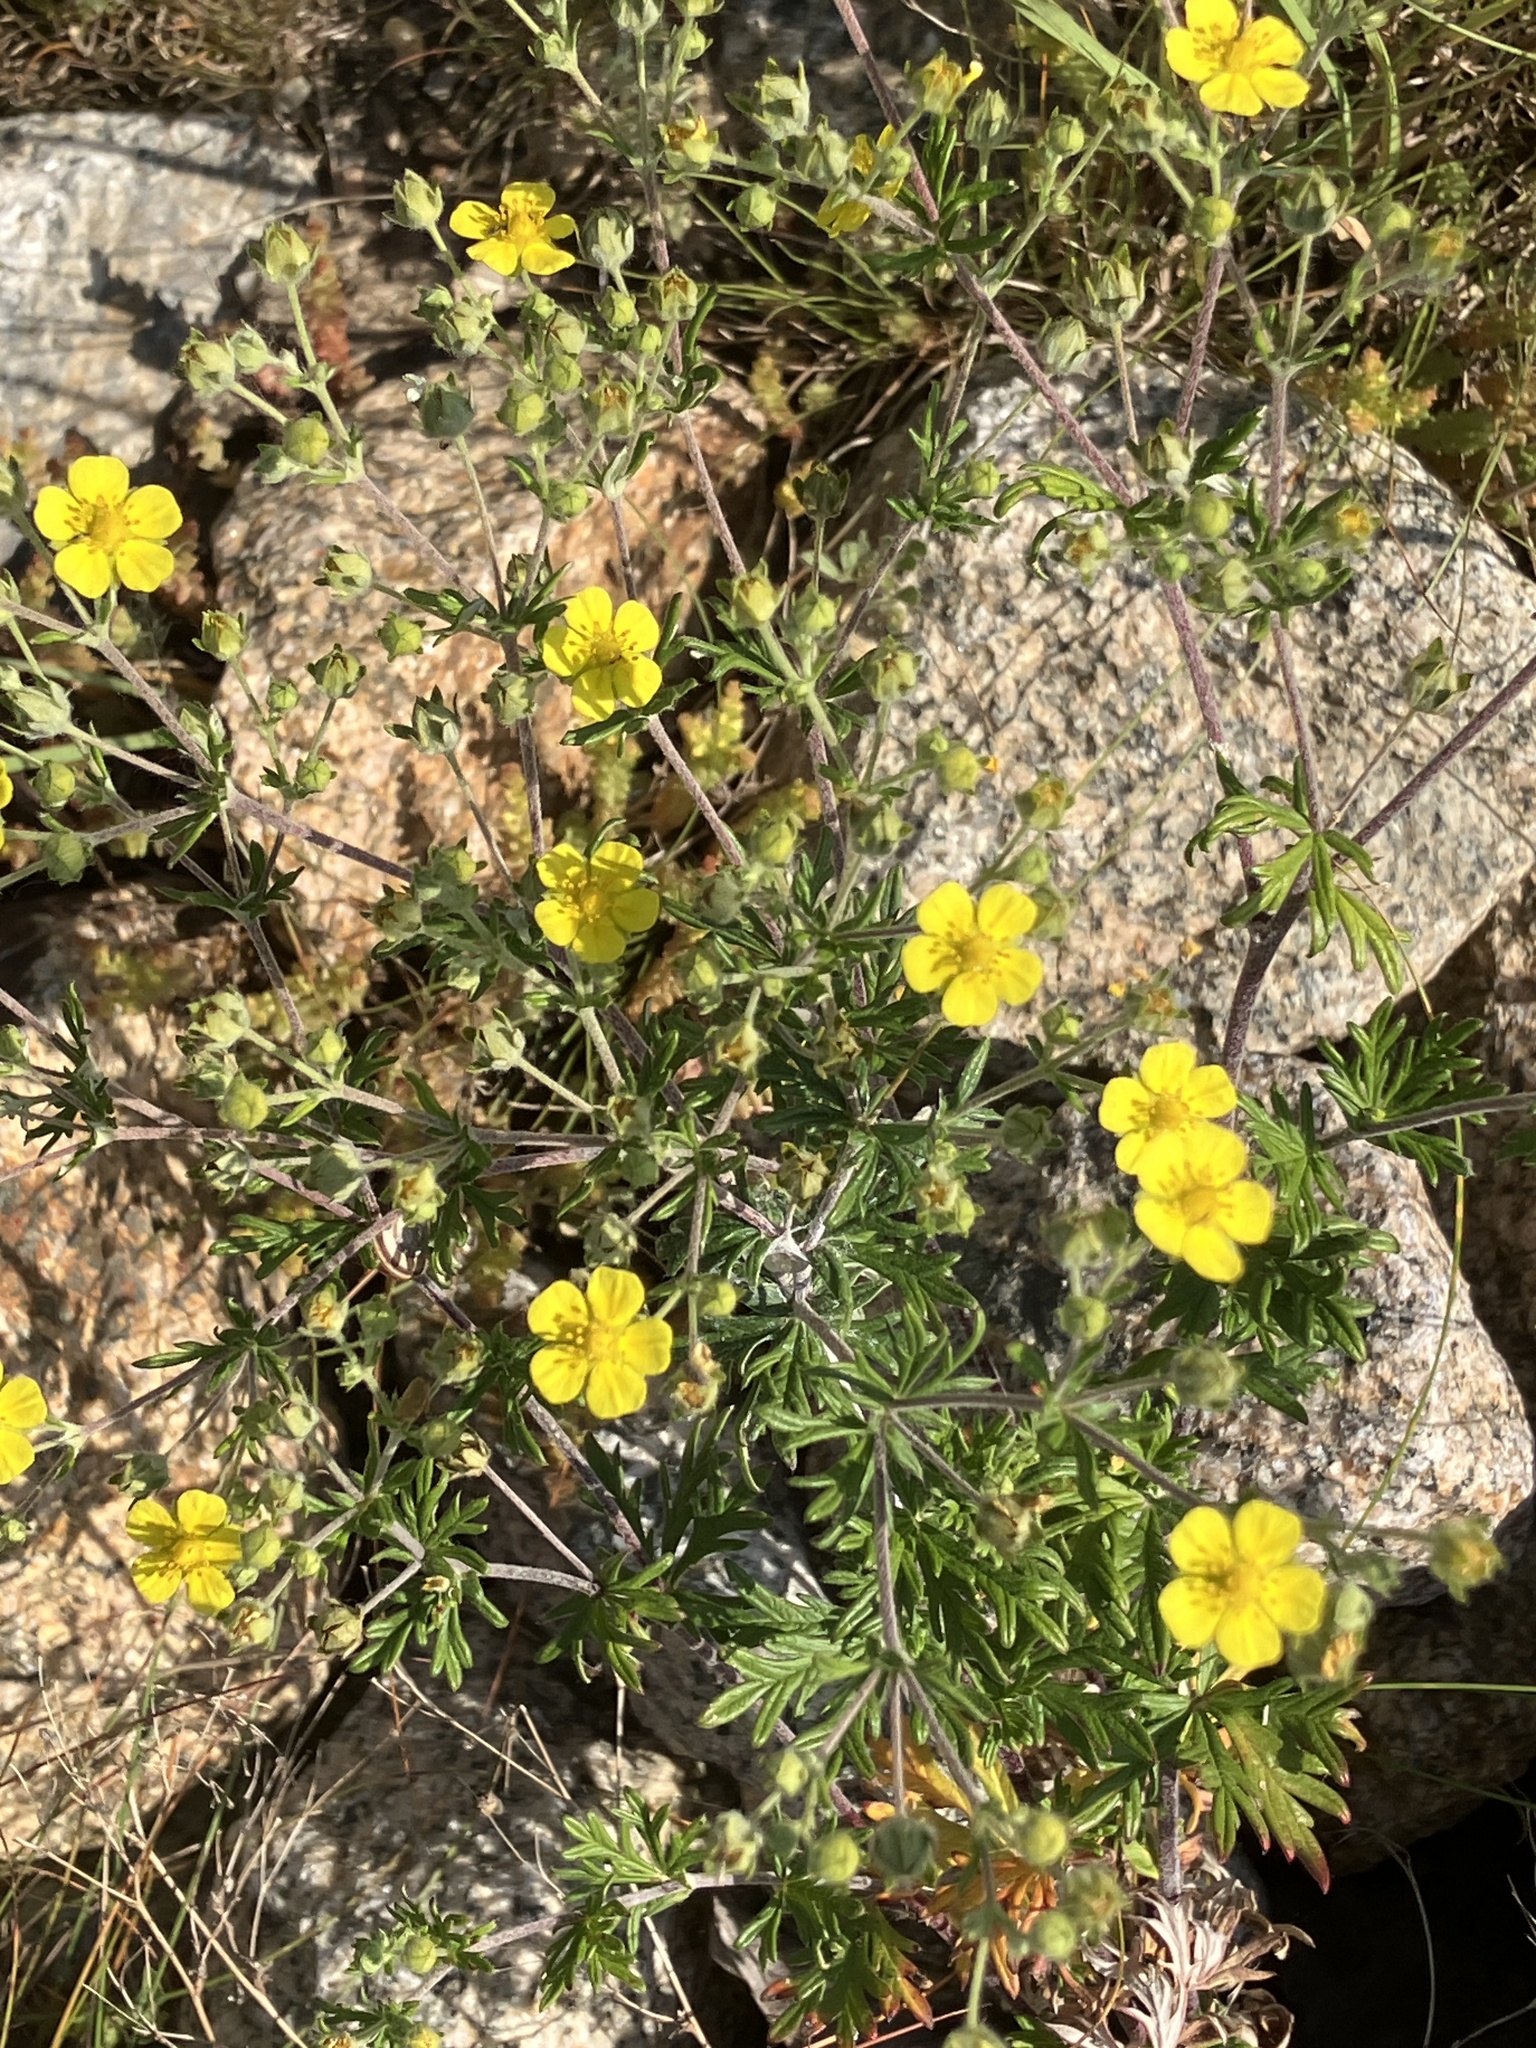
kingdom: Plantae
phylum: Tracheophyta
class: Magnoliopsida
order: Rosales
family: Rosaceae
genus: Potentilla
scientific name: Potentilla argentea
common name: Hoary cinquefoil
